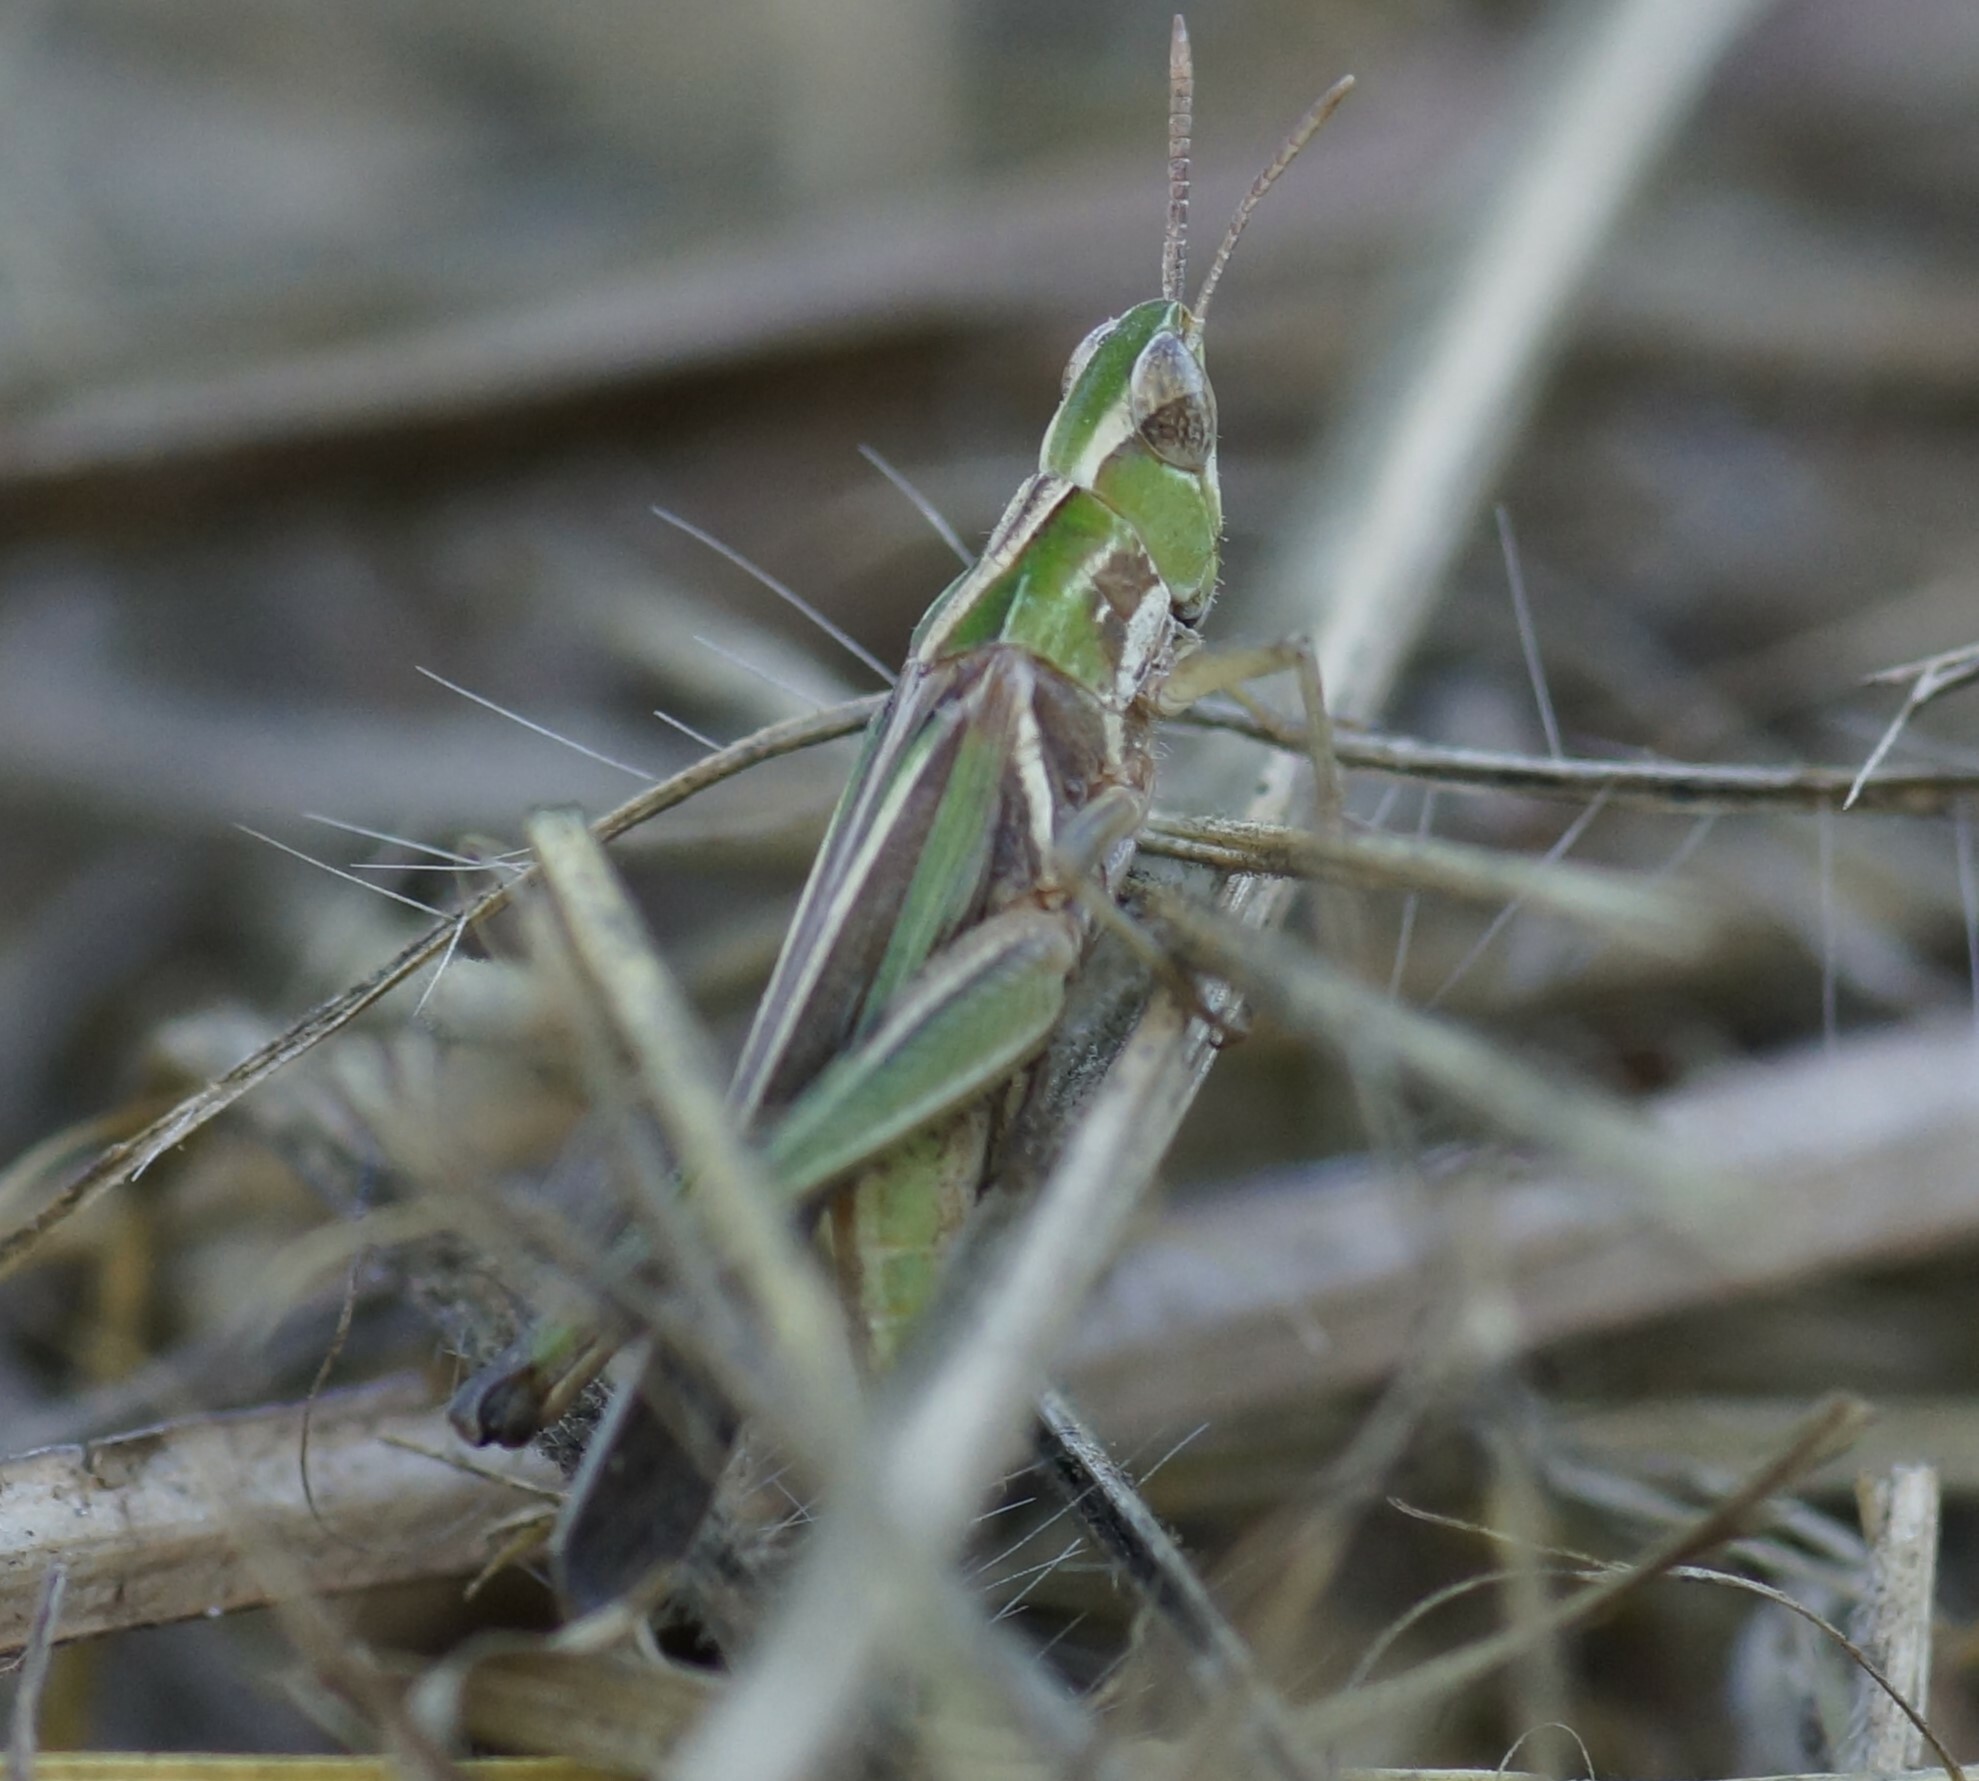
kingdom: Animalia
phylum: Arthropoda
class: Insecta
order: Orthoptera
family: Acrididae
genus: Calephorops
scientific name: Calephorops viridis
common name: Calephorops
